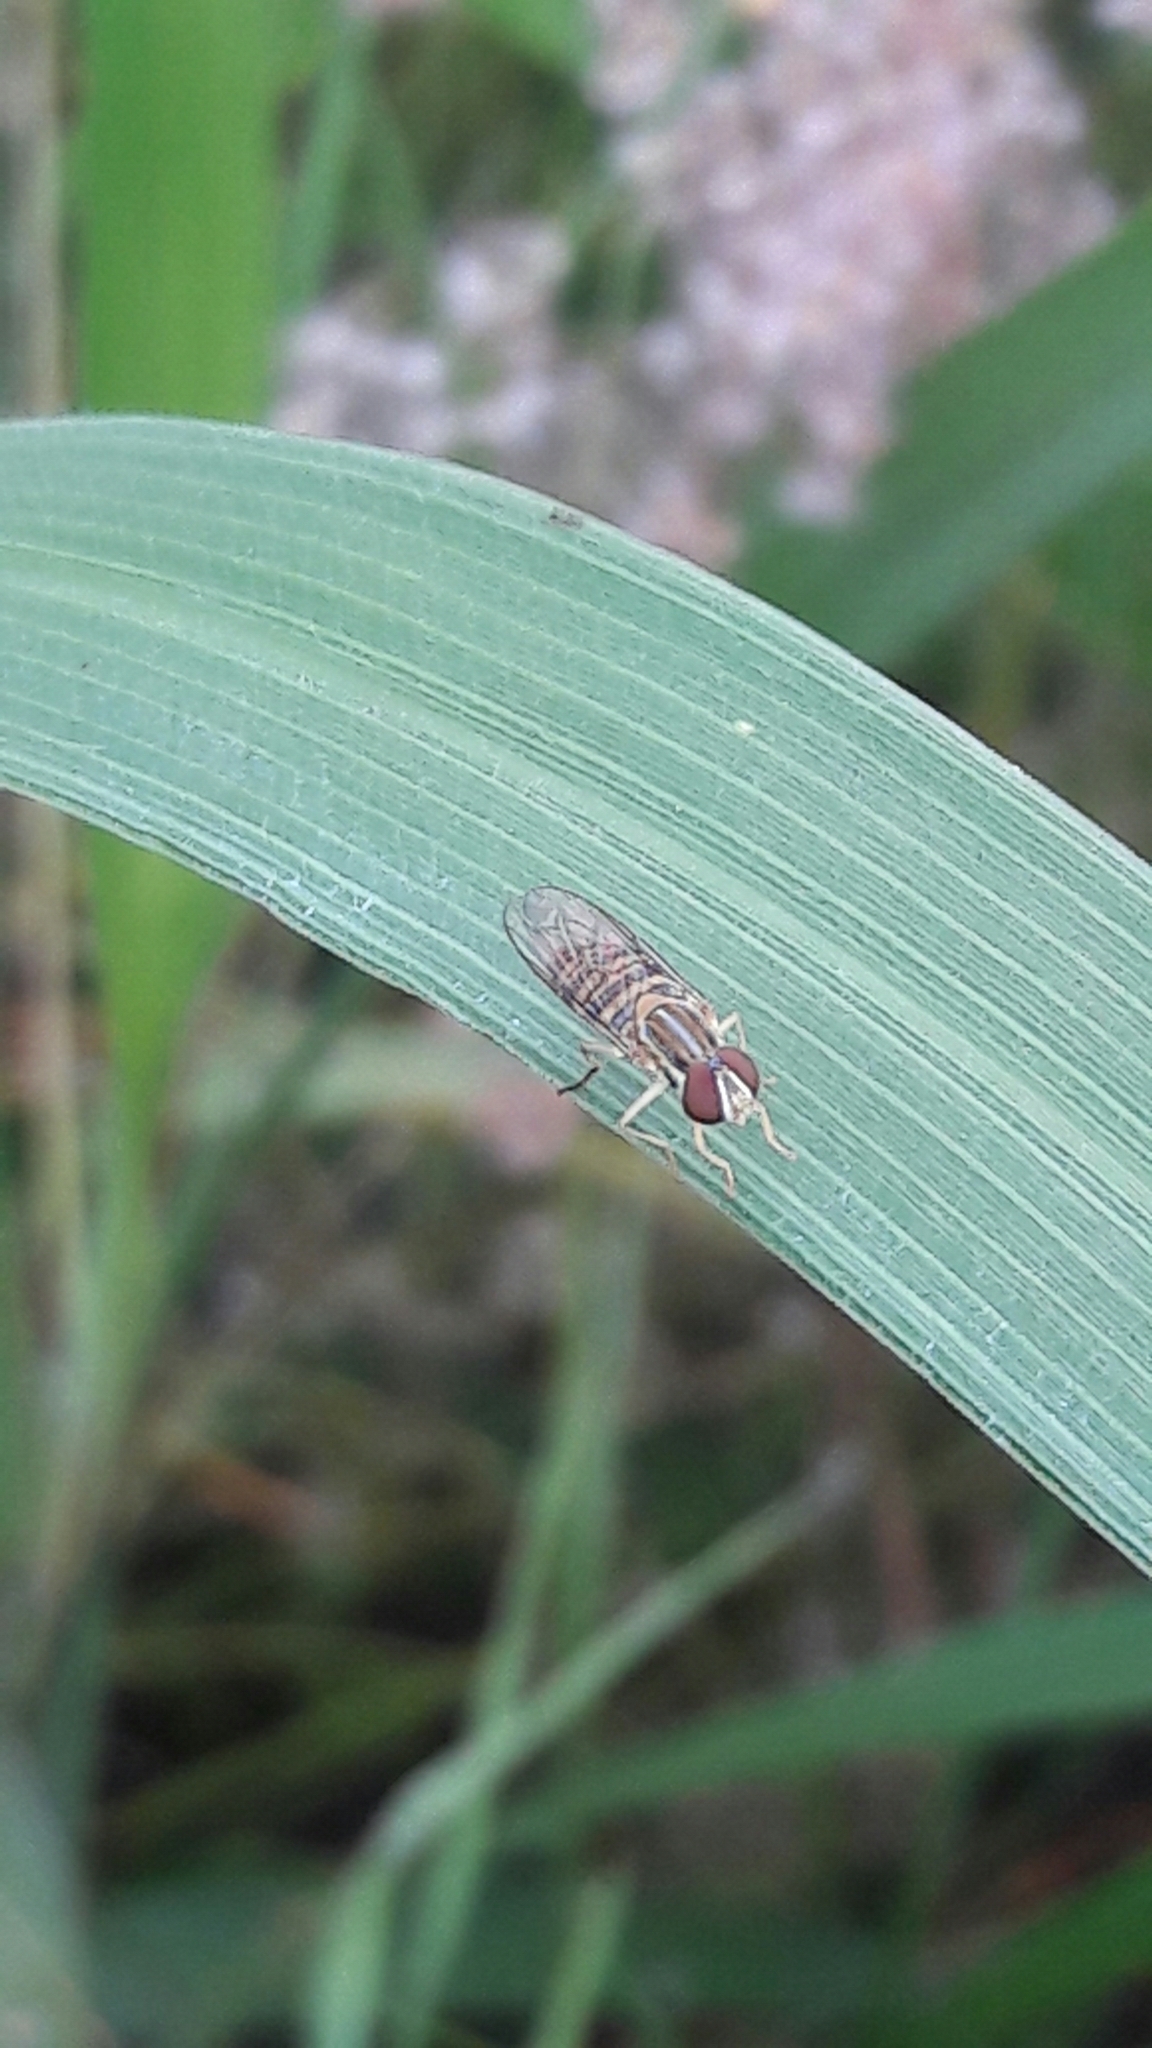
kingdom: Animalia
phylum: Arthropoda
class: Insecta
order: Diptera
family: Syrphidae
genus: Toxomerus
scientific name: Toxomerus politus
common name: Maize calligrapher
